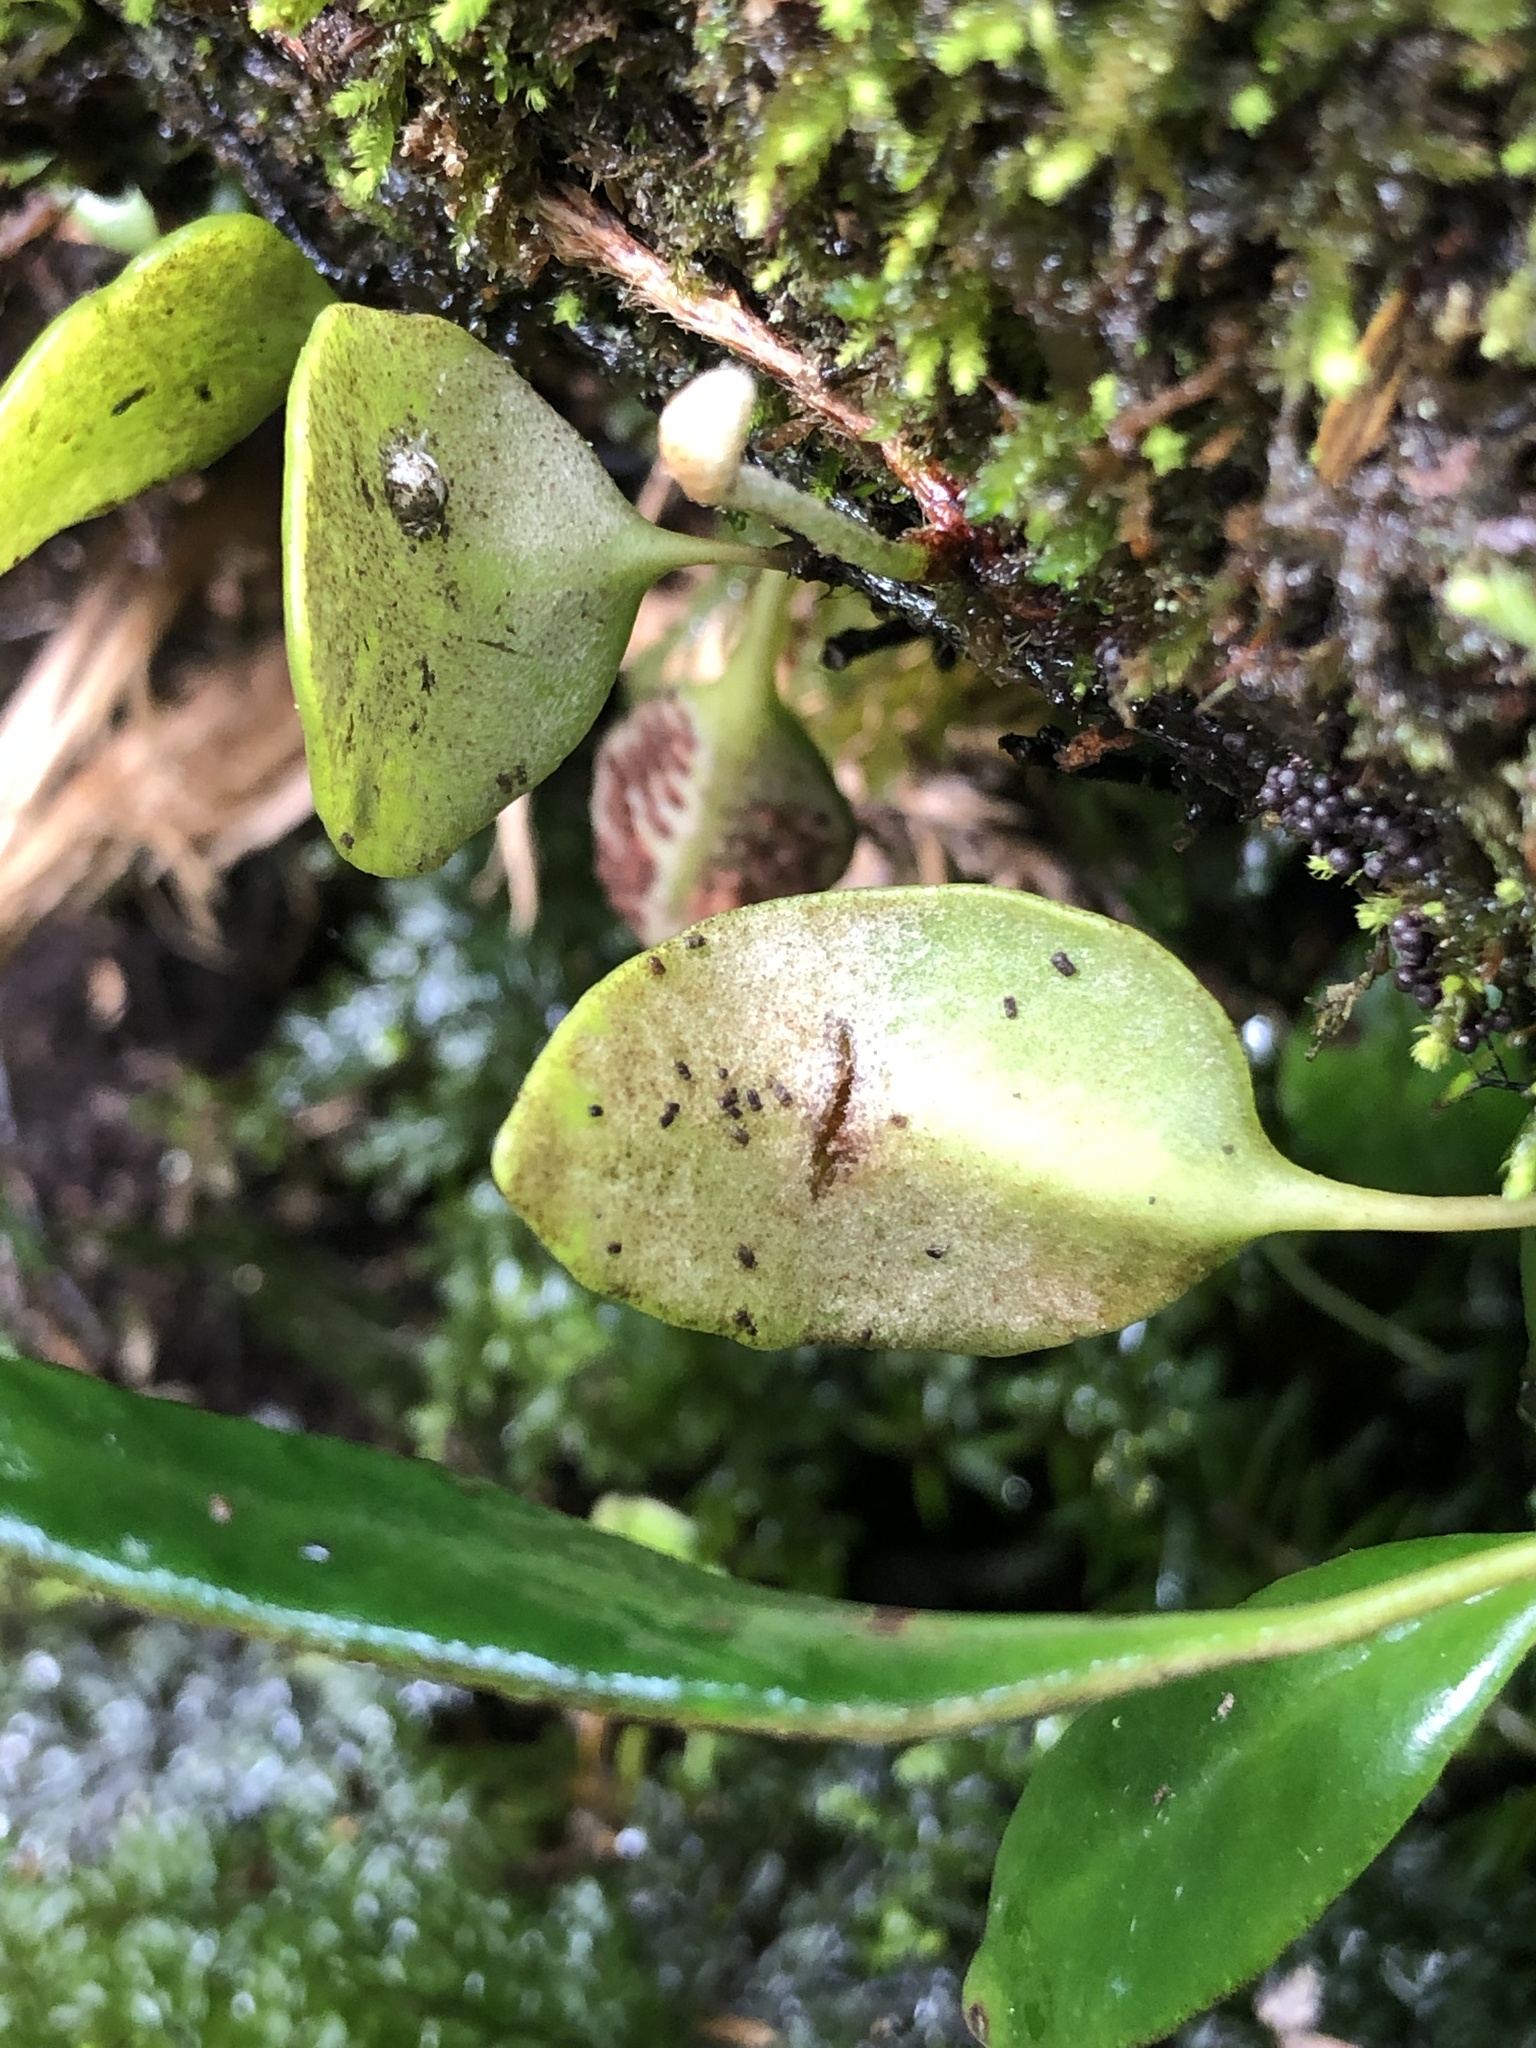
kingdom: Plantae
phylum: Tracheophyta
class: Polypodiopsida
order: Polypodiales
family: Polypodiaceae
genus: Pyrrosia
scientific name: Pyrrosia eleagnifolia
